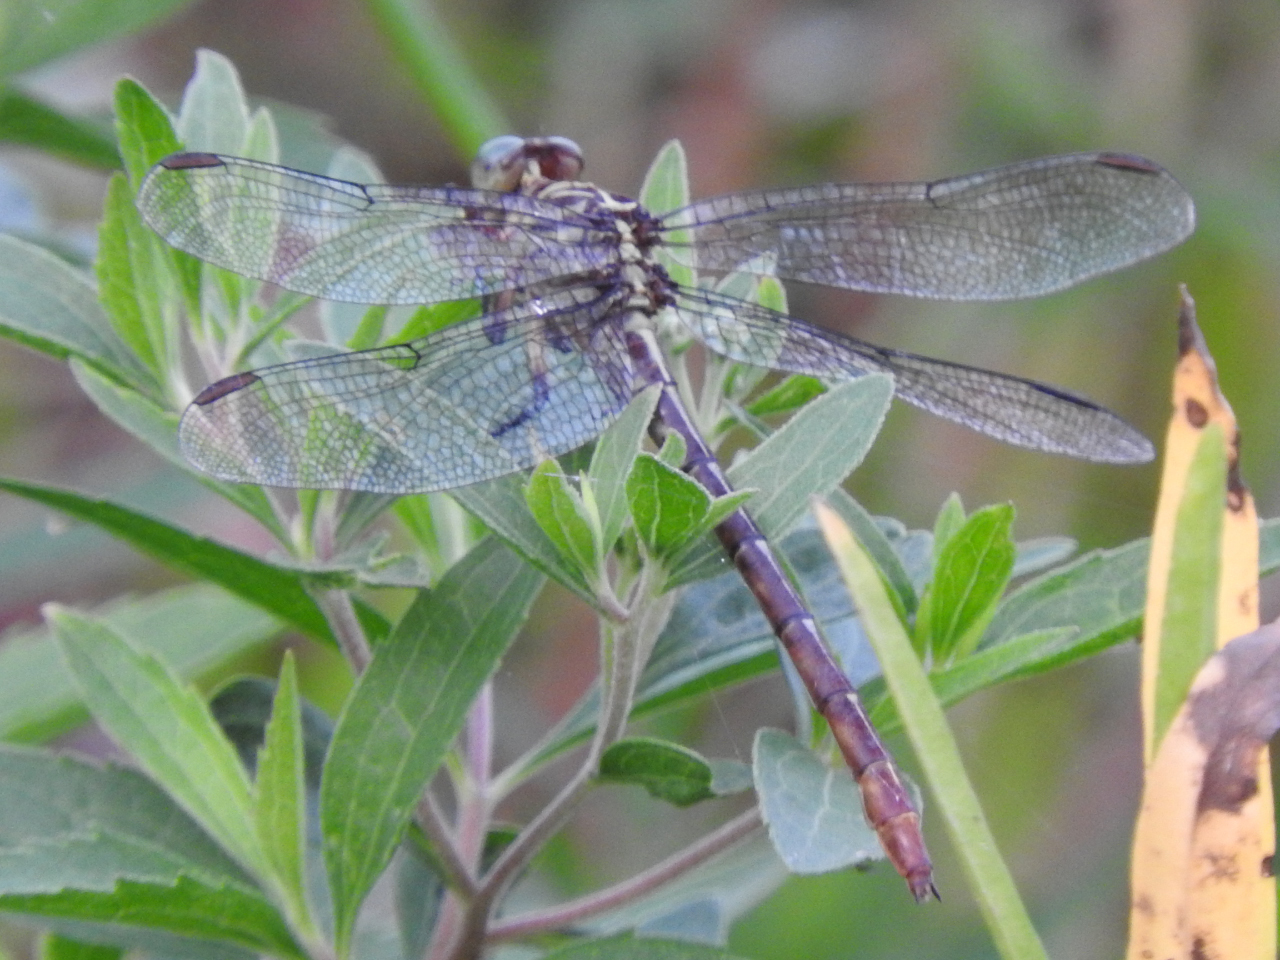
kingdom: Animalia
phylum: Arthropoda
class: Insecta
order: Odonata
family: Gomphidae
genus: Stylurus
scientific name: Stylurus plagiatus
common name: Russet-tipped clubtail
